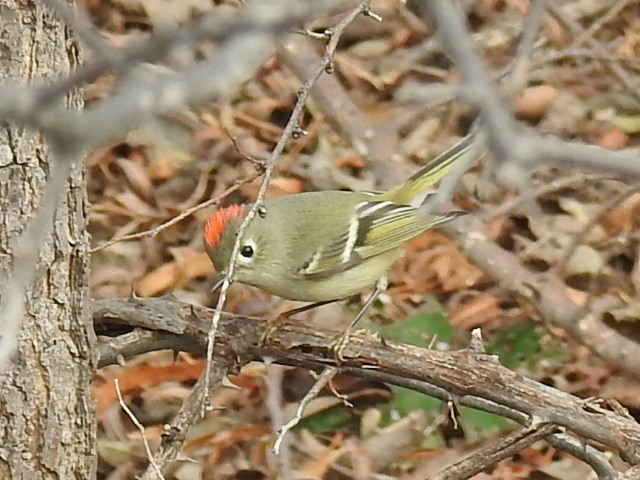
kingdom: Animalia
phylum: Chordata
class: Aves
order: Passeriformes
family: Regulidae
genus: Regulus
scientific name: Regulus calendula
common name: Ruby-crowned kinglet
